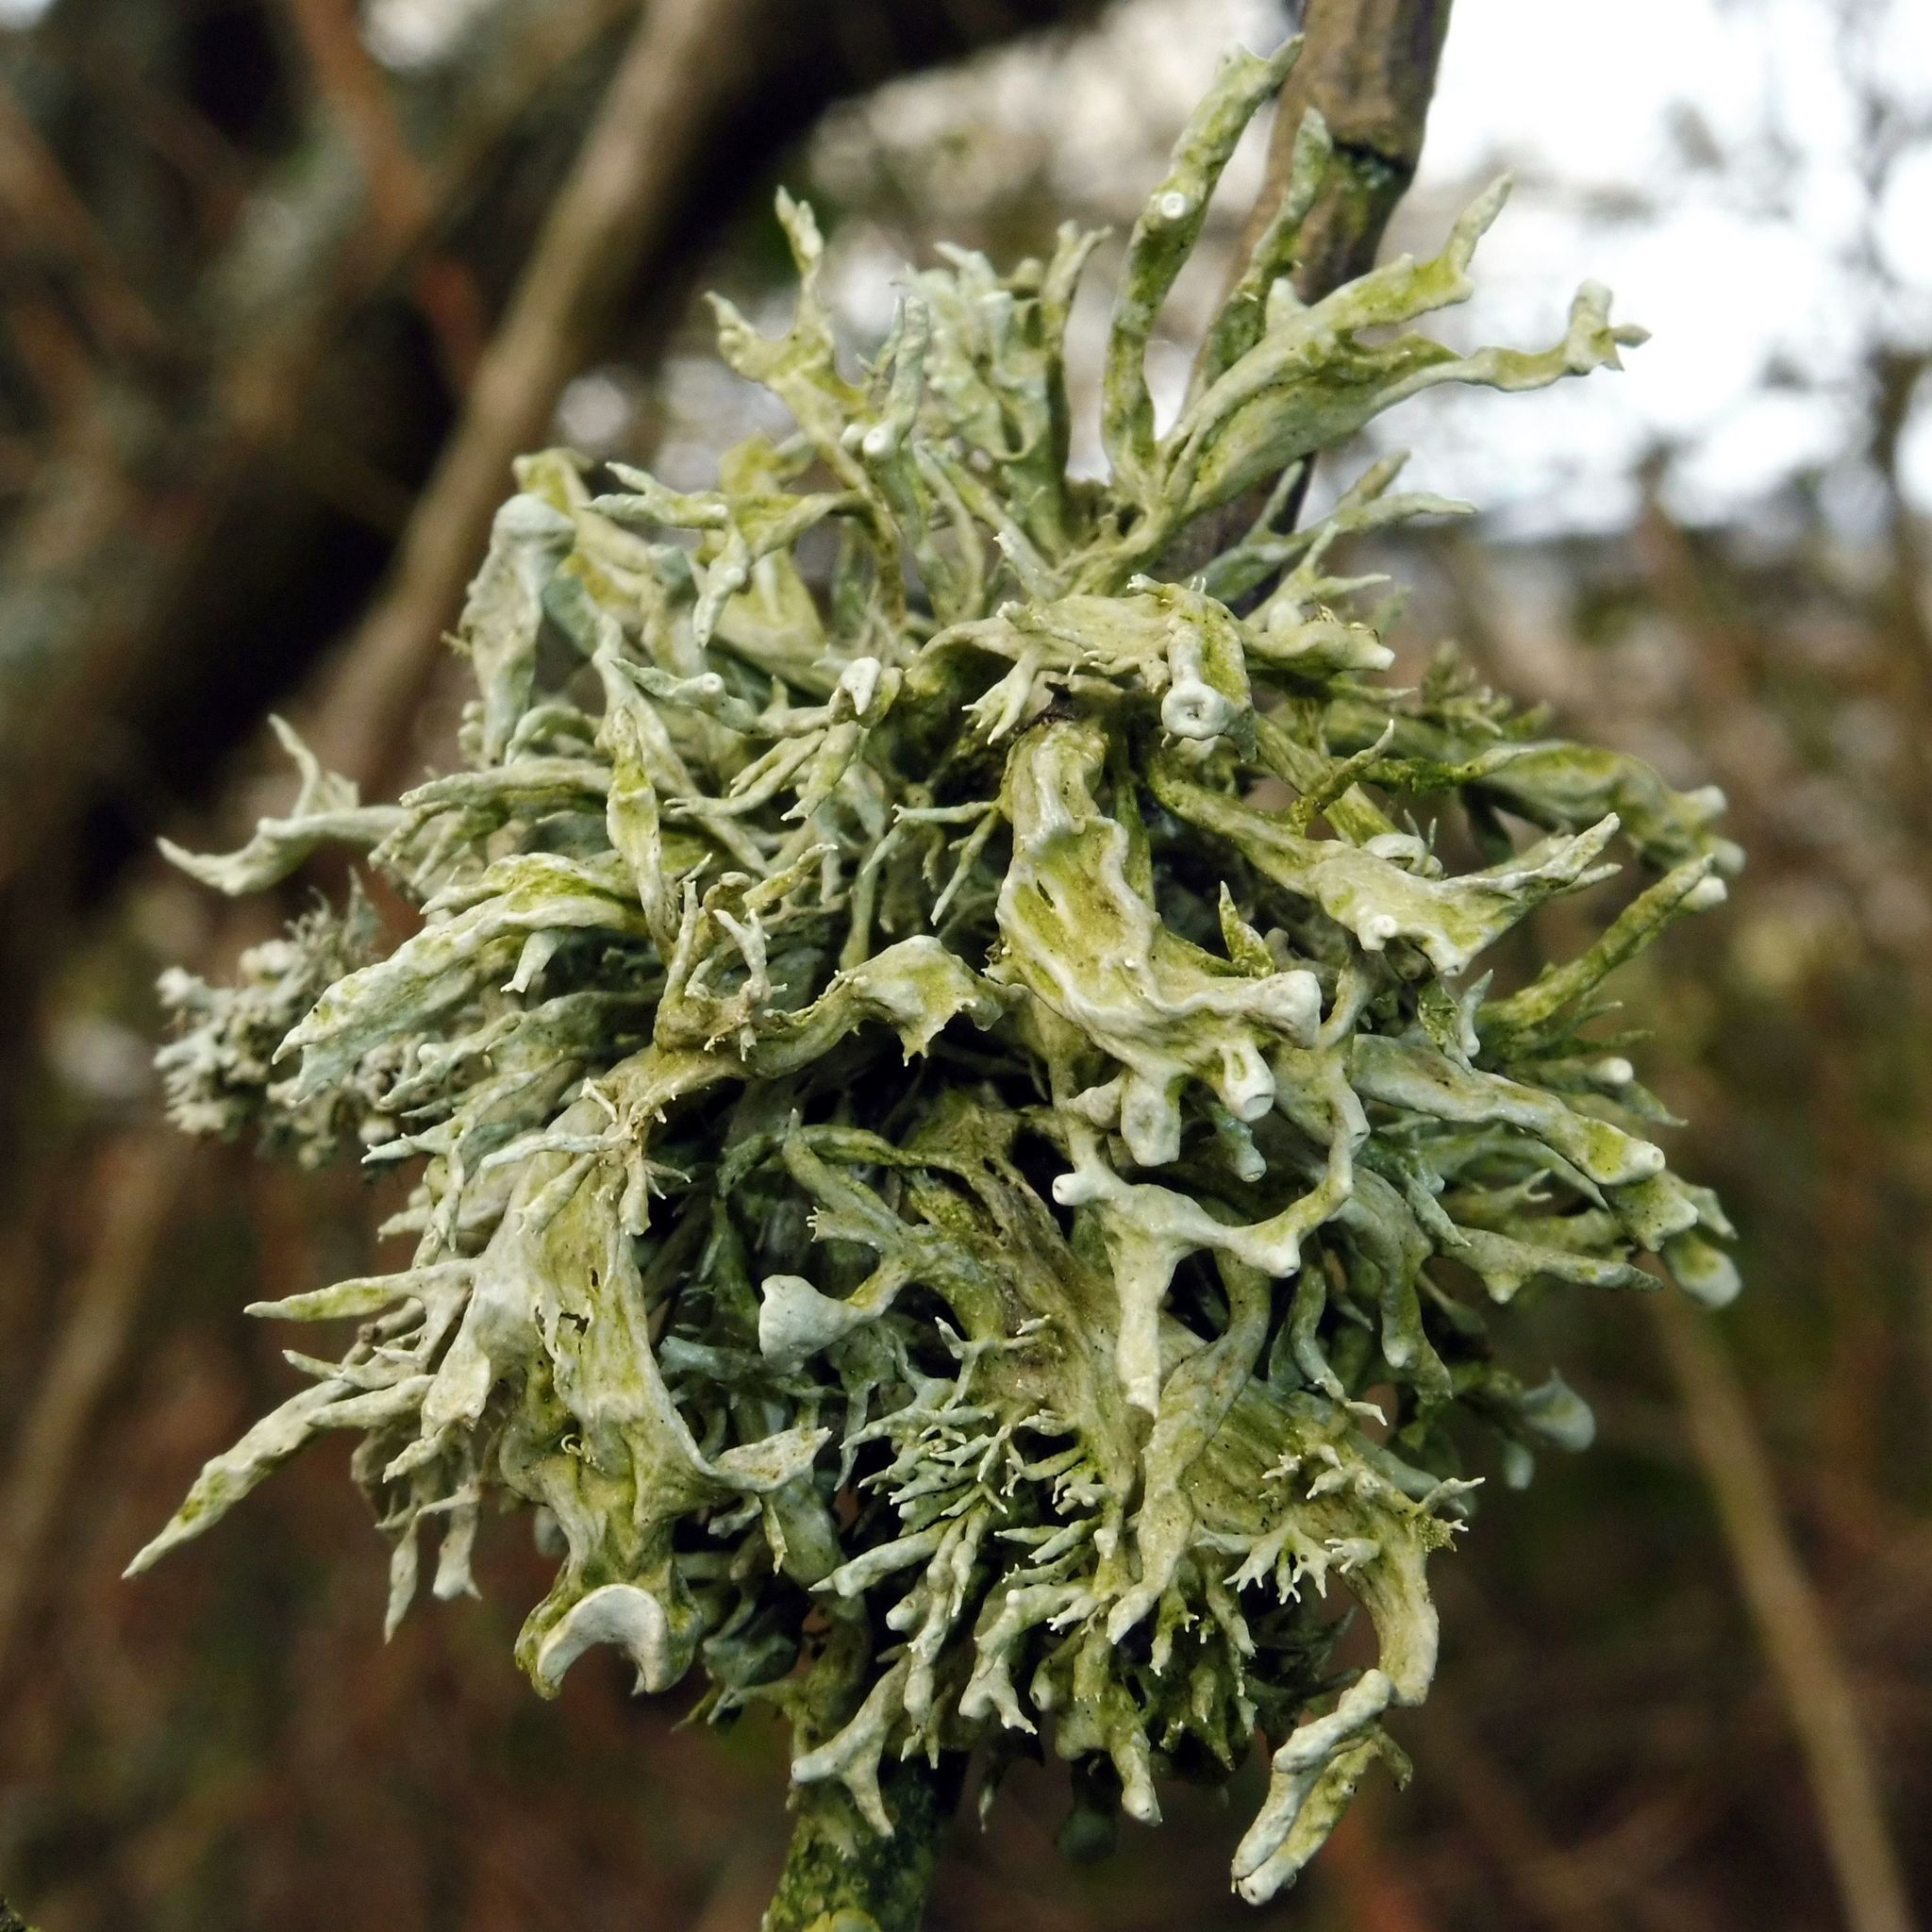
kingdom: Fungi
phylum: Ascomycota
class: Lecanoromycetes
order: Lecanorales
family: Ramalinaceae
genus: Ramalina
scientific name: Ramalina fastigiata
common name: Dotted ribbon lichen
